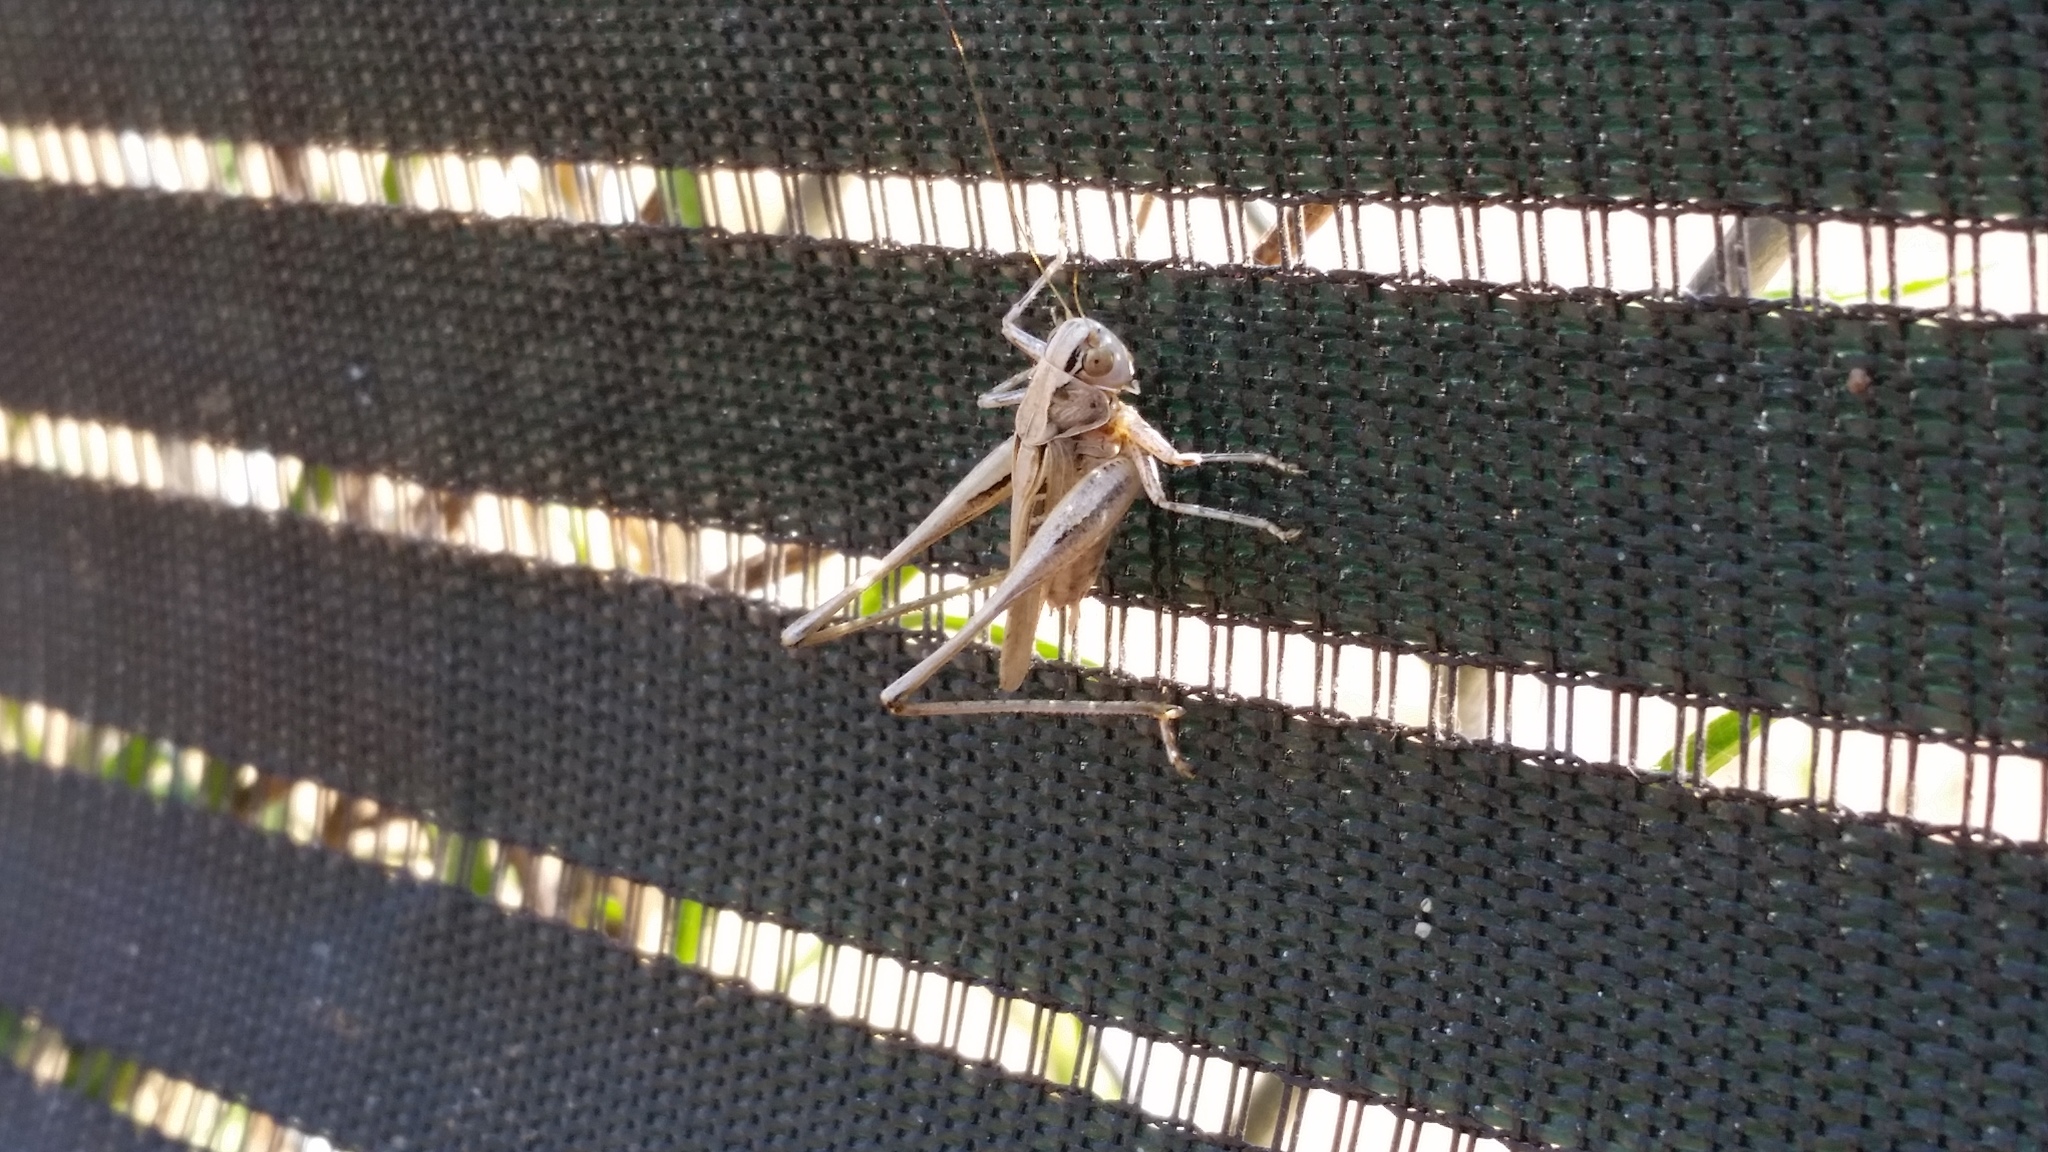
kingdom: Animalia
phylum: Arthropoda
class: Insecta
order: Orthoptera
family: Tettigoniidae
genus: Tessellana
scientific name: Tessellana tessellata
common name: Grasshopper
